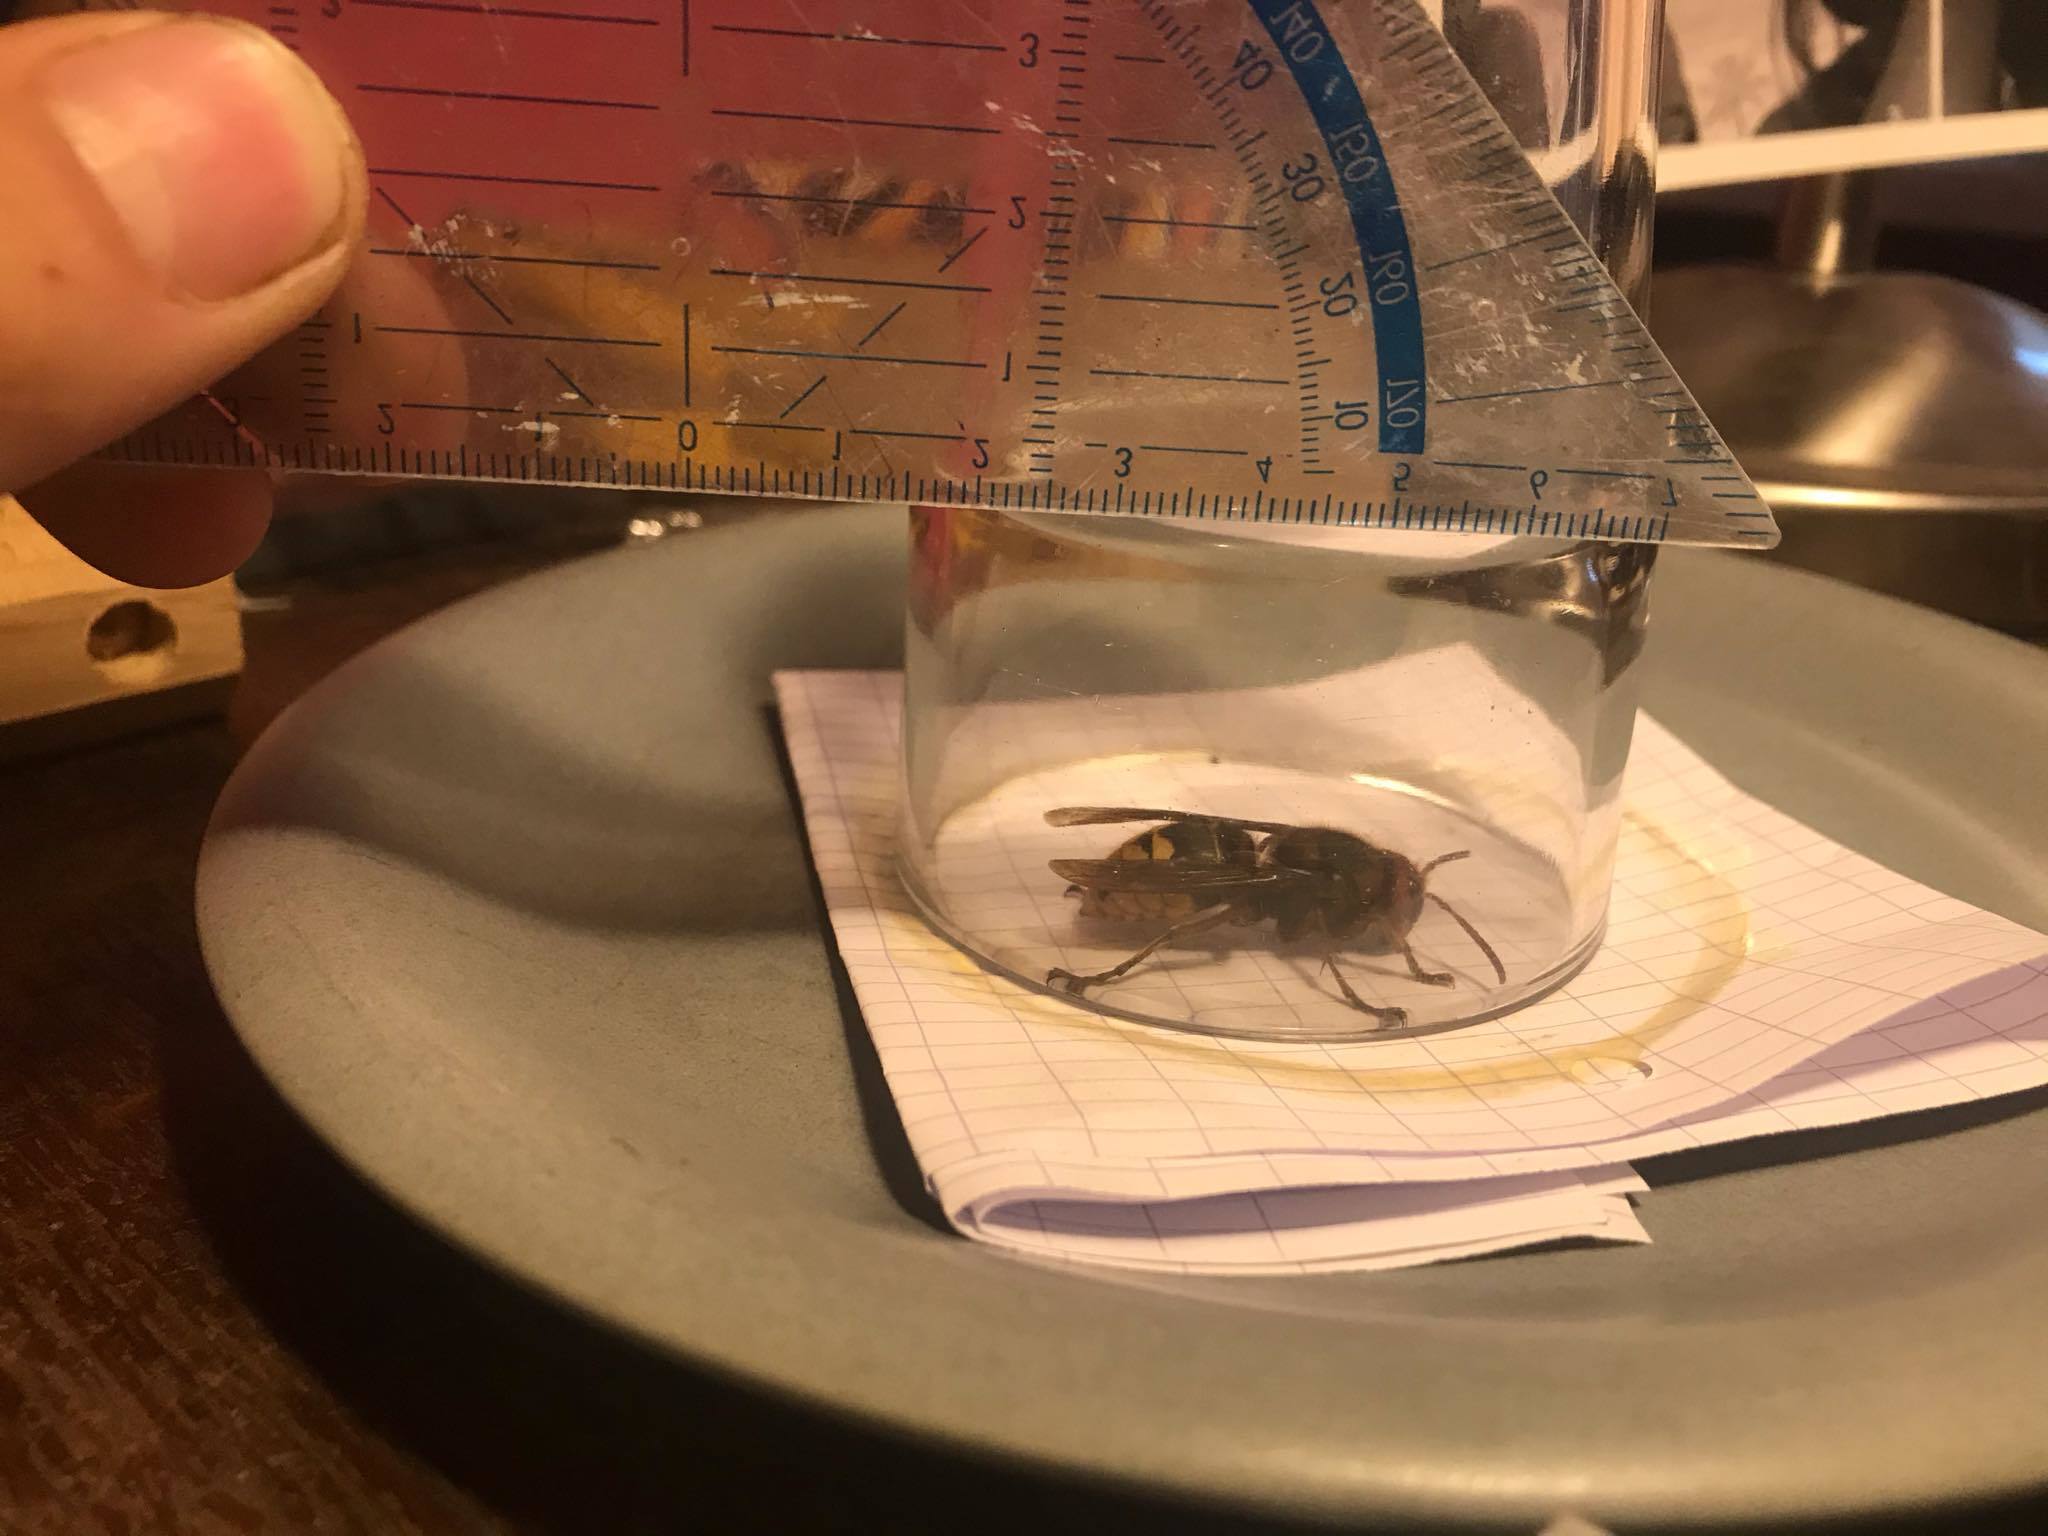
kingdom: Animalia
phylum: Arthropoda
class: Insecta
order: Hymenoptera
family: Vespidae
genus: Vespa
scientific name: Vespa crabro
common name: Hornet
